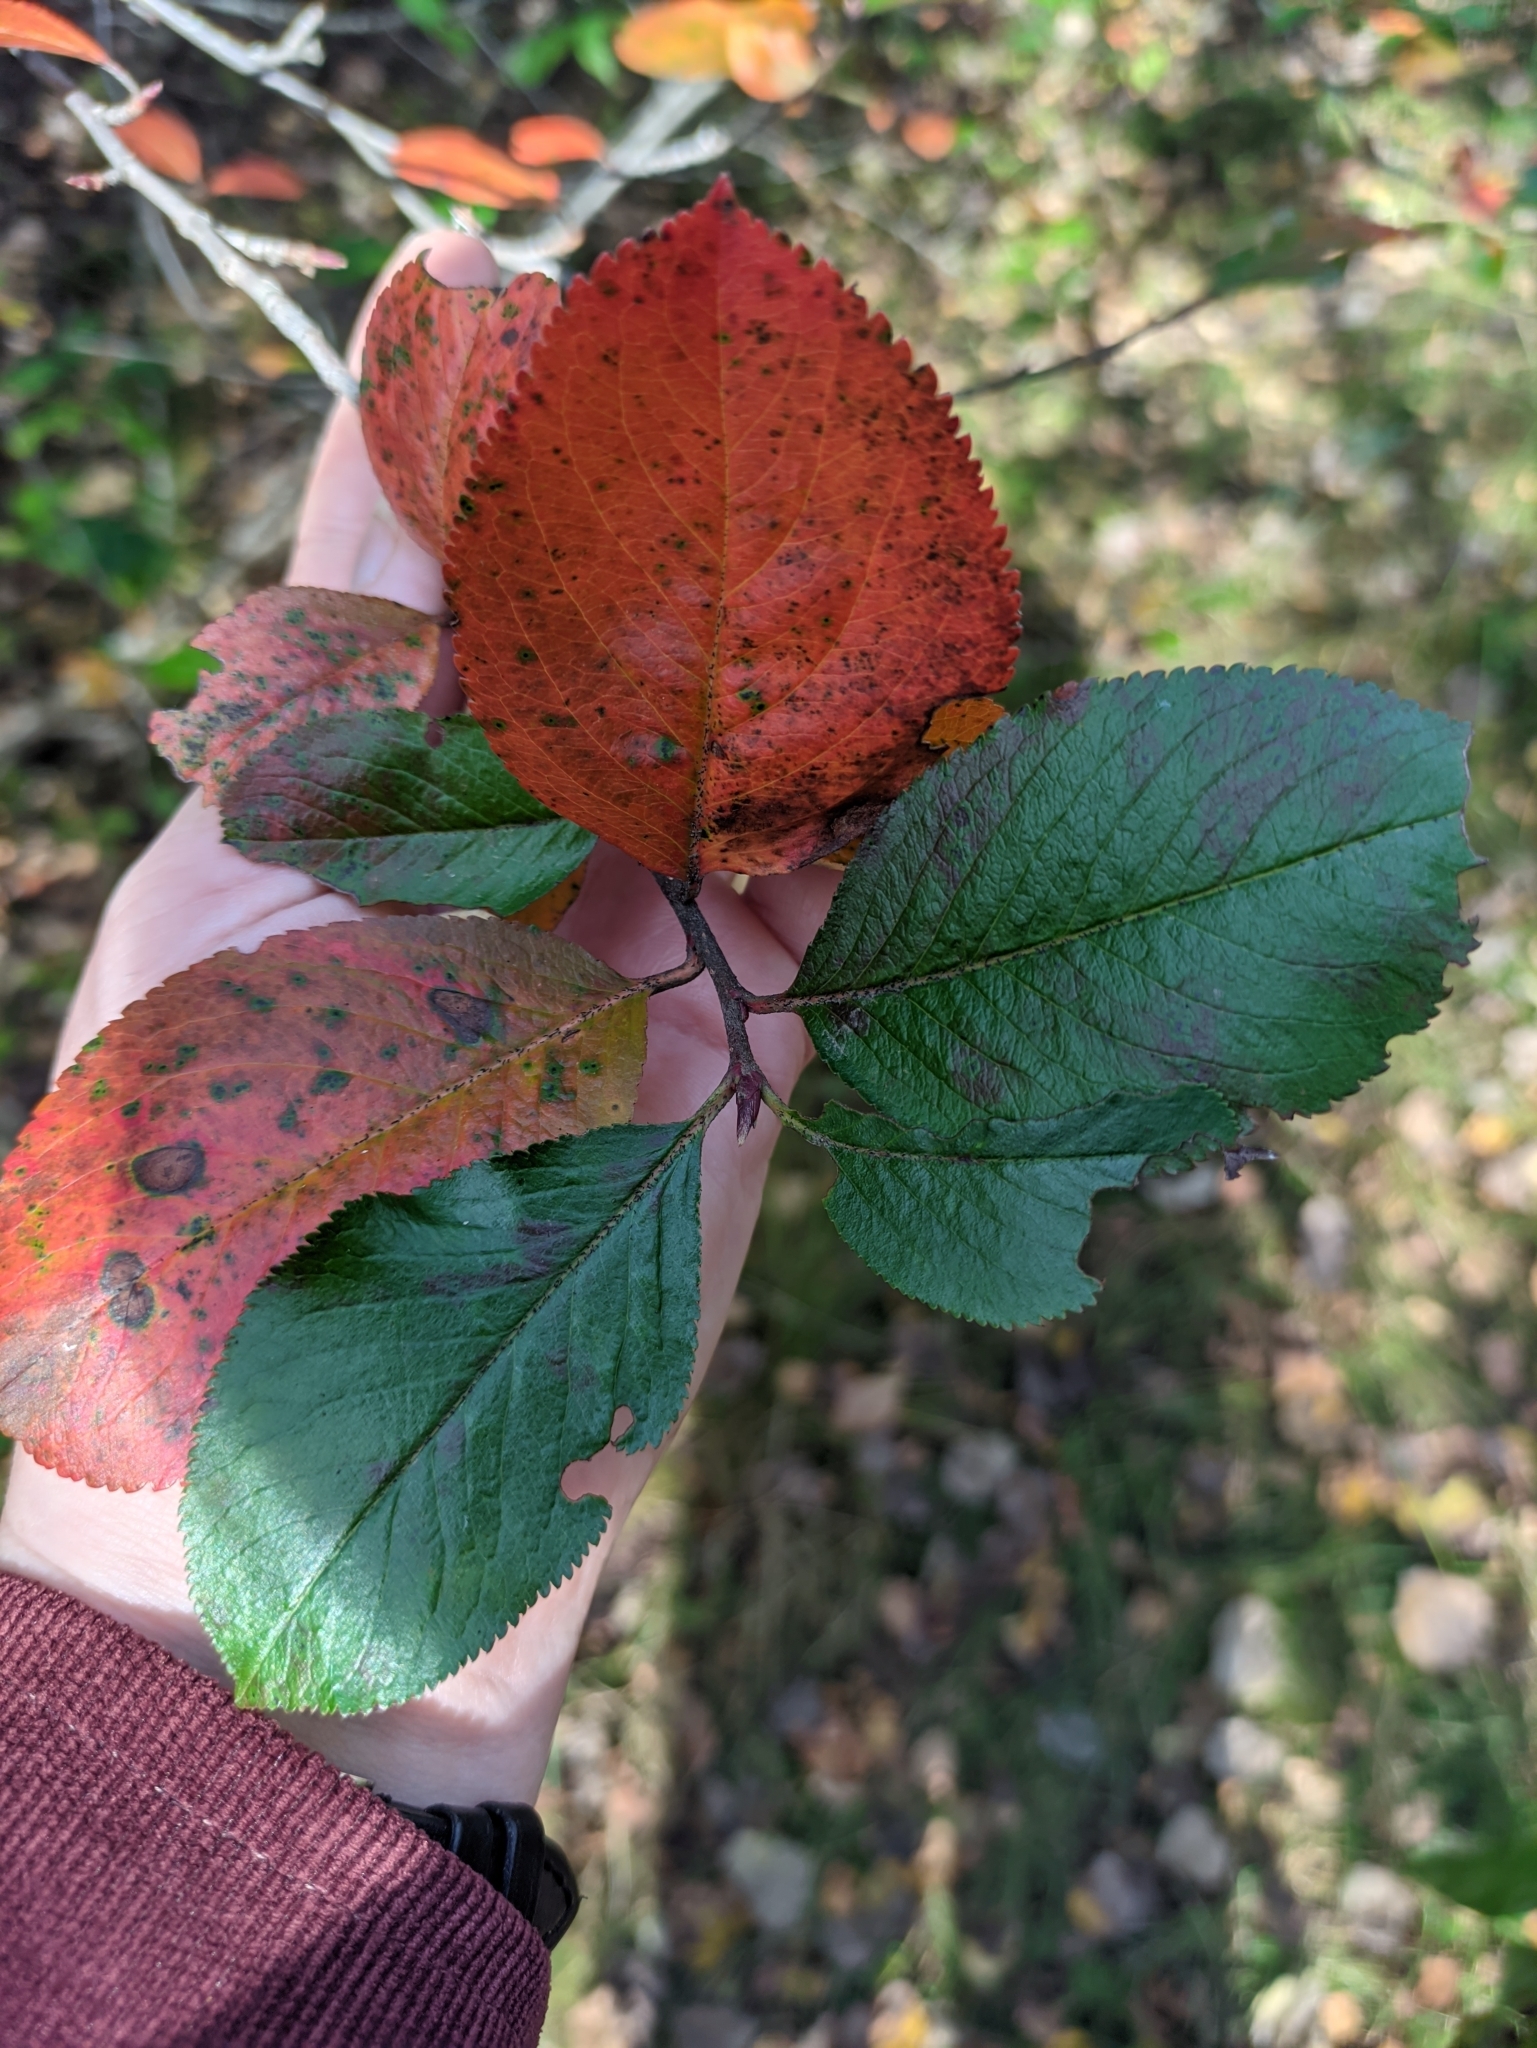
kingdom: Plantae
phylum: Tracheophyta
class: Magnoliopsida
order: Rosales
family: Rosaceae
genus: Sorbaronia
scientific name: Sorbaronia arsenii
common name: Arsène's mountain-ash
